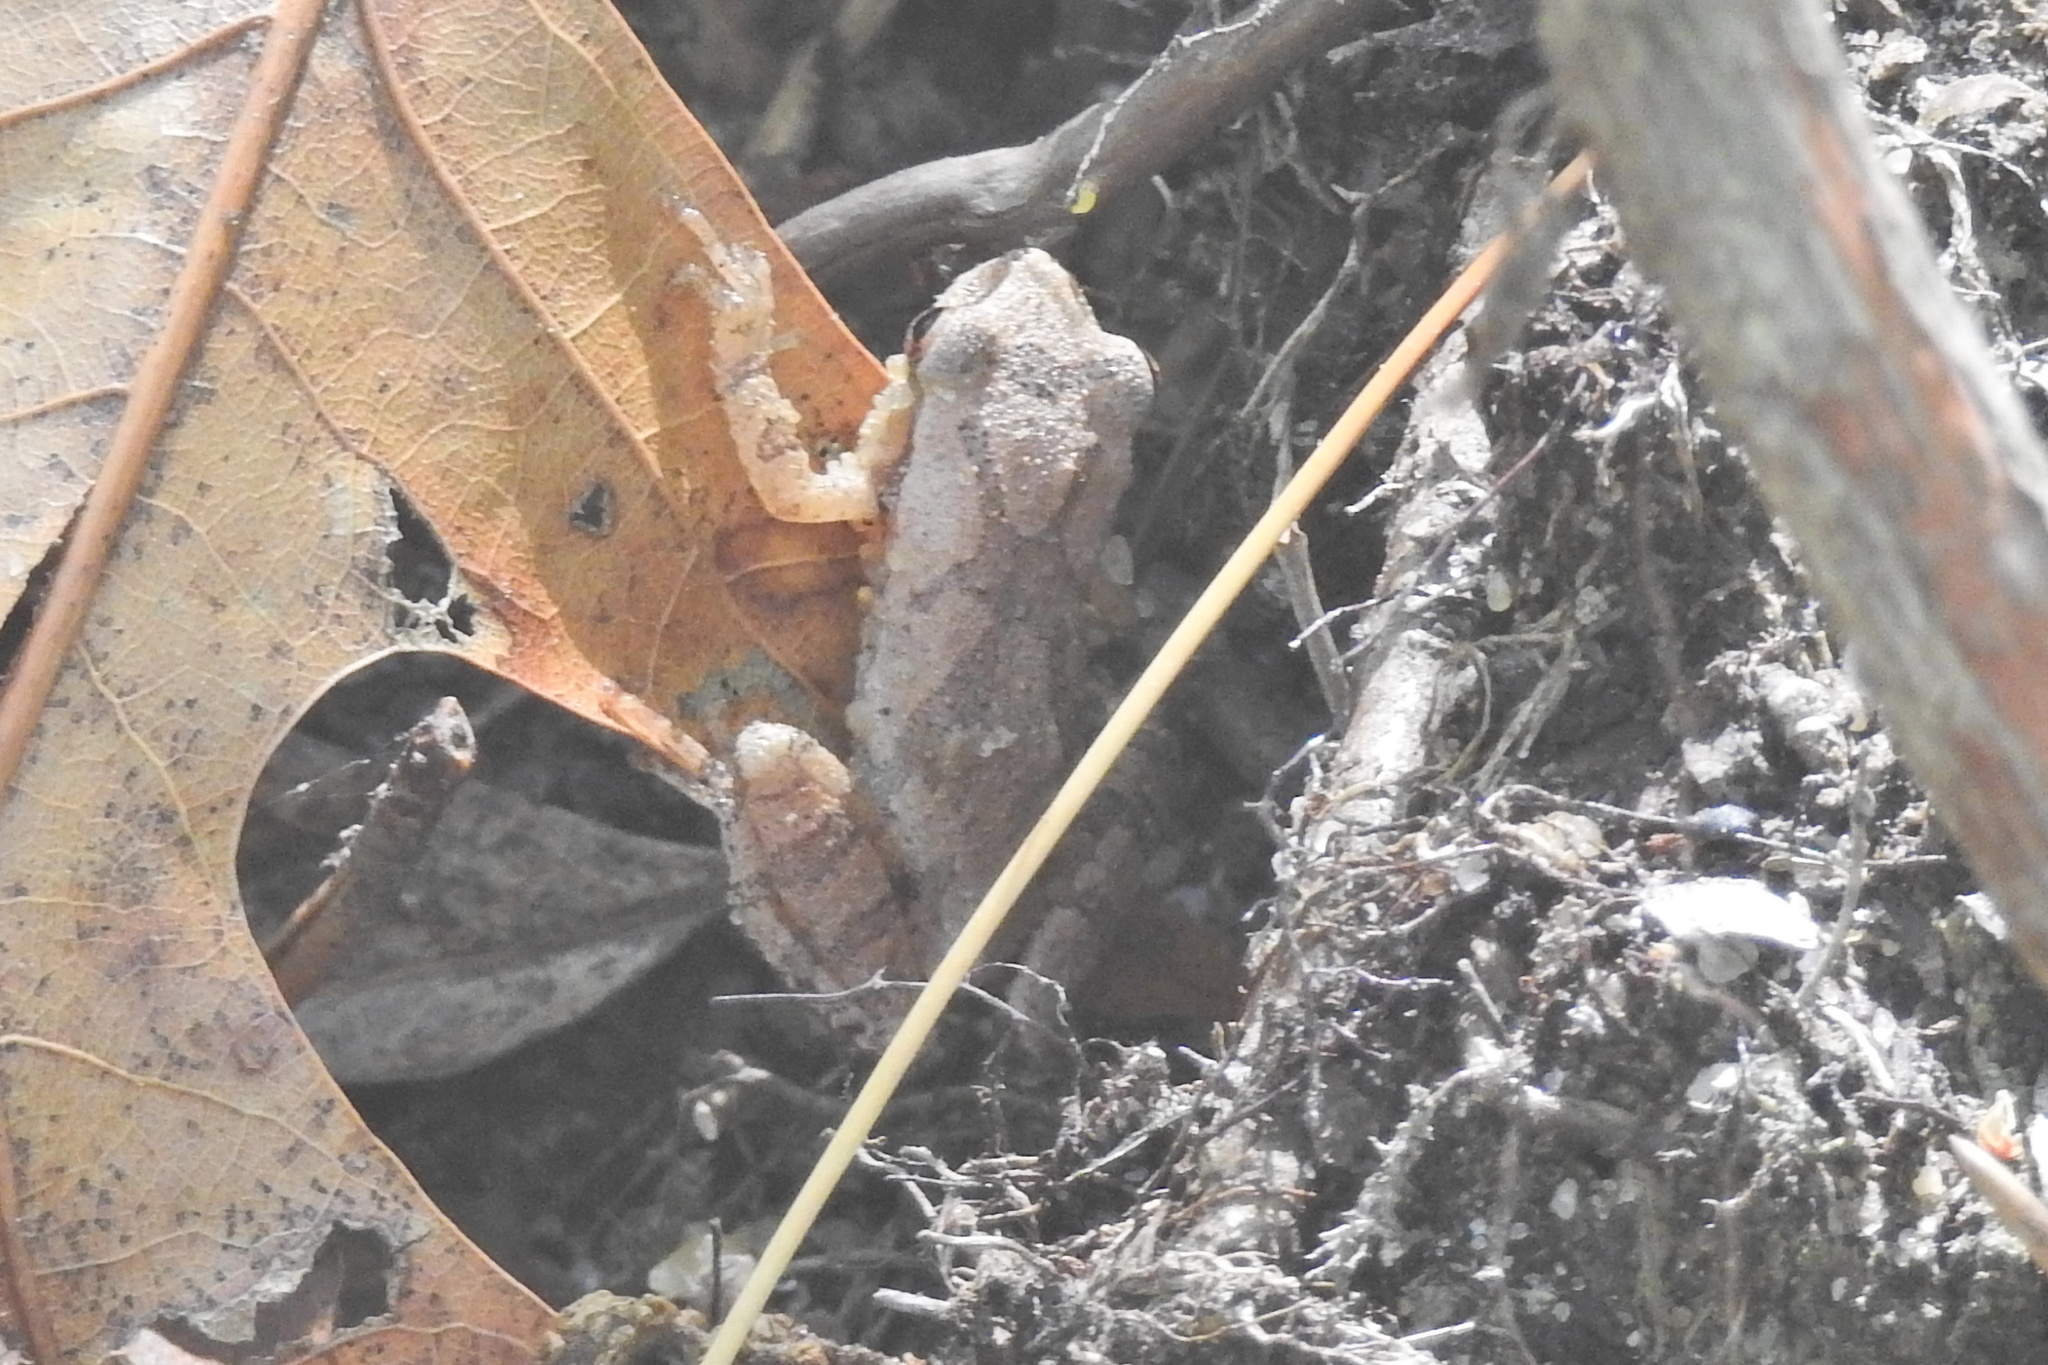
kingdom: Animalia
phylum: Chordata
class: Amphibia
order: Anura
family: Hylidae
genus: Pseudacris
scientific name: Pseudacris crucifer
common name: Spring peeper
